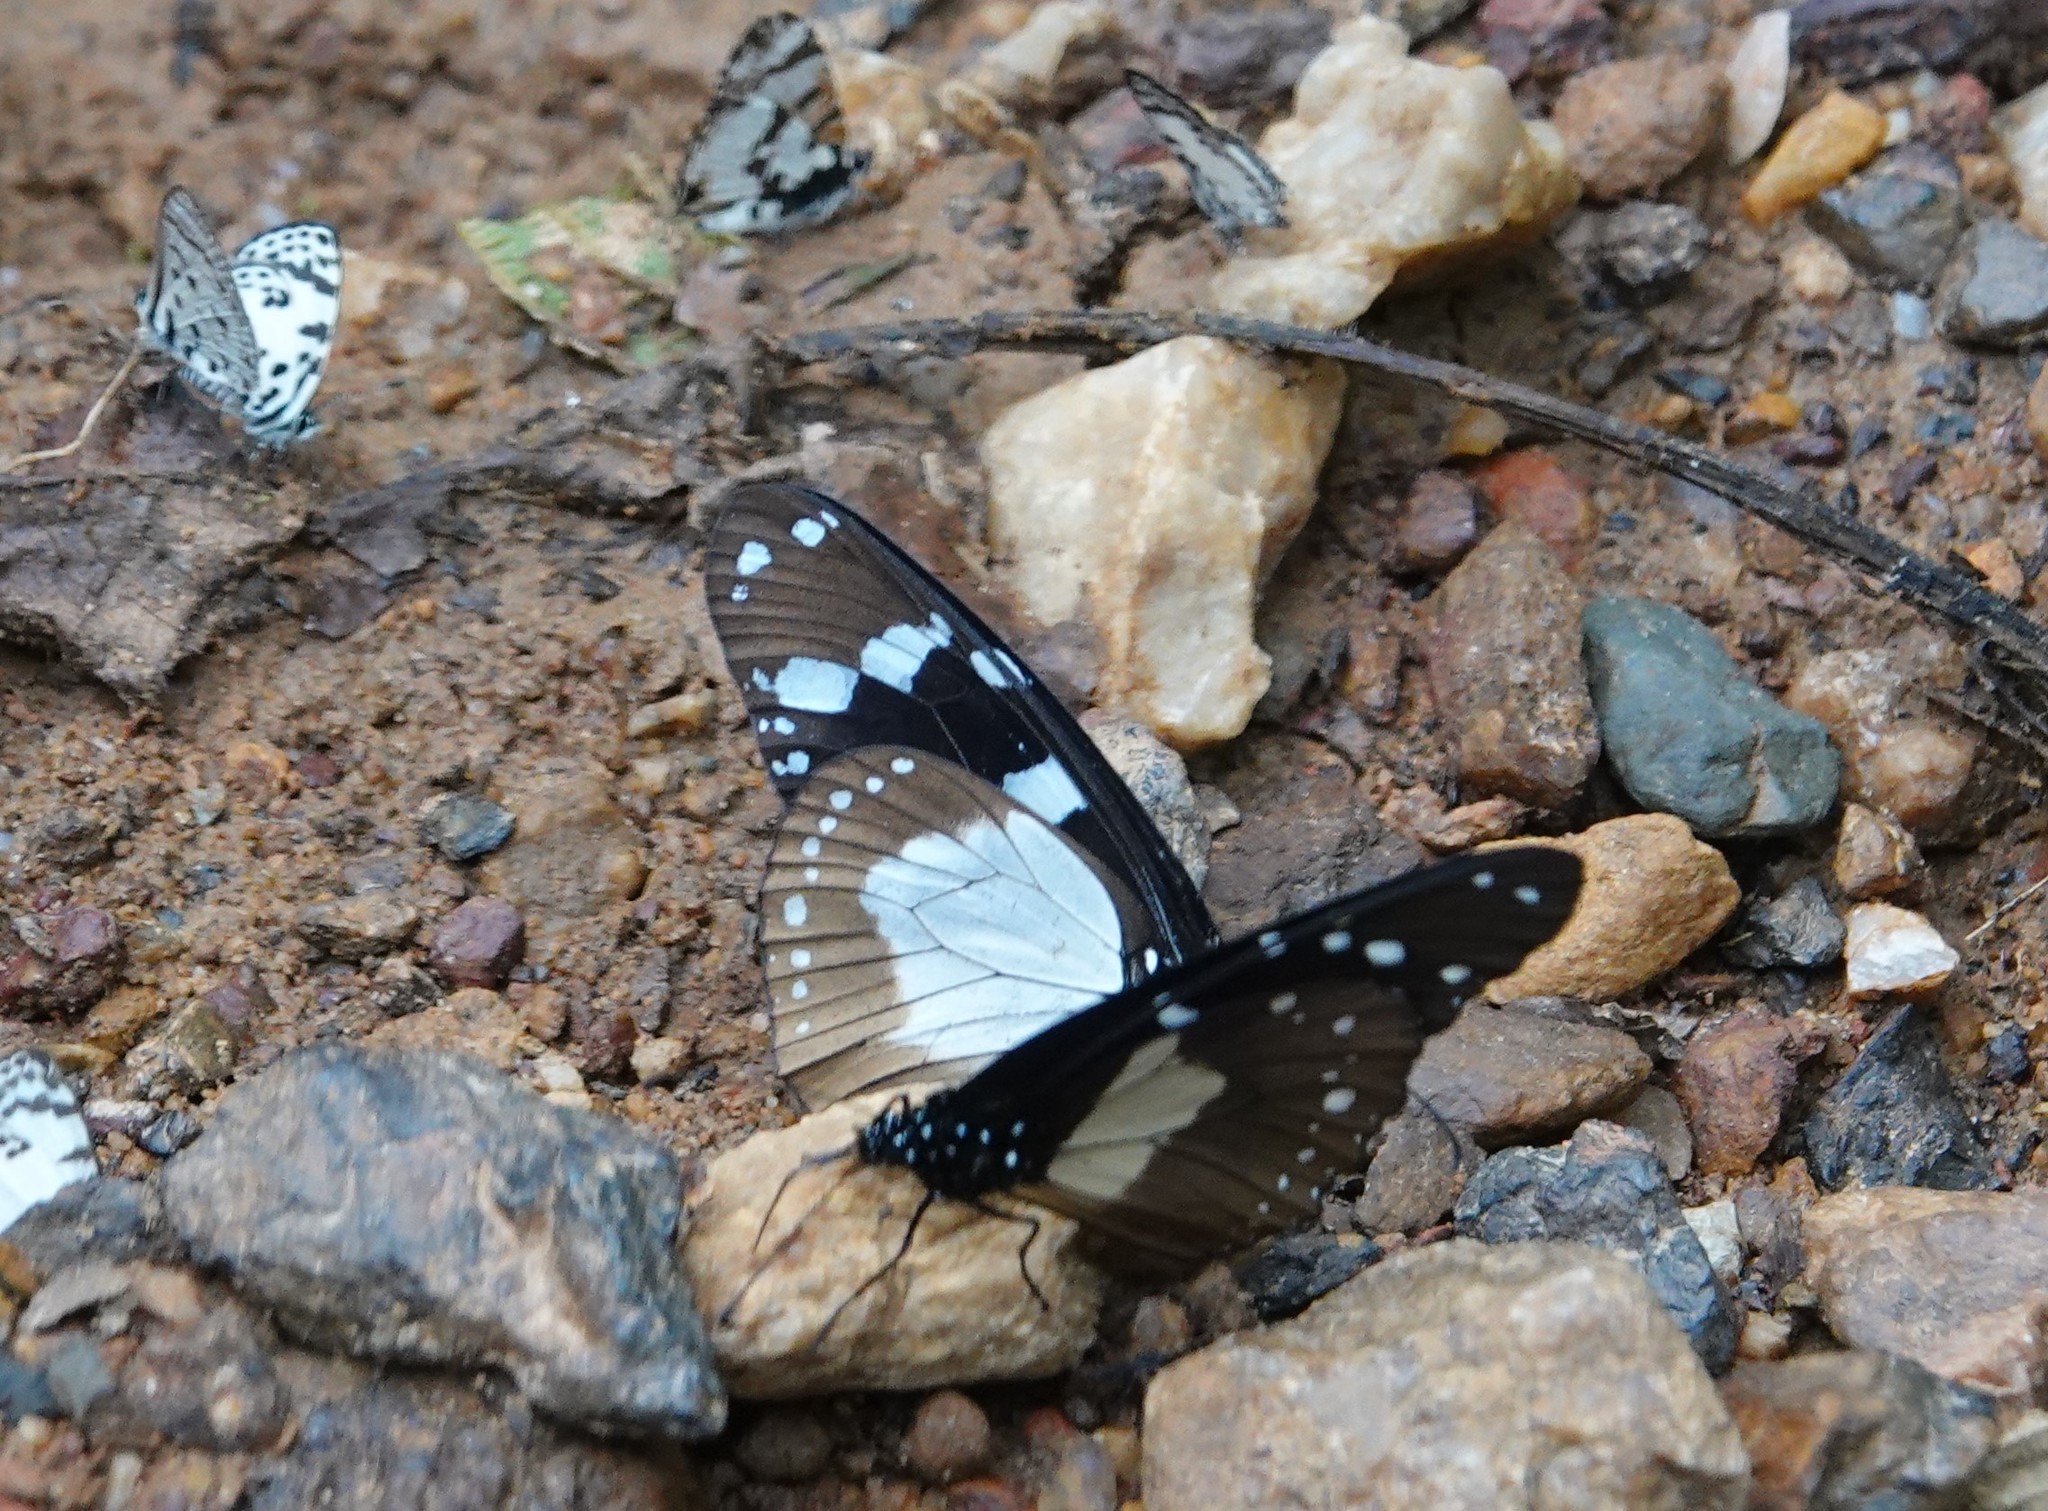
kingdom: Animalia
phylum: Arthropoda
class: Insecta
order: Lepidoptera
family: Nymphalidae
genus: Amauris
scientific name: Amauris tartarea
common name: Monk
